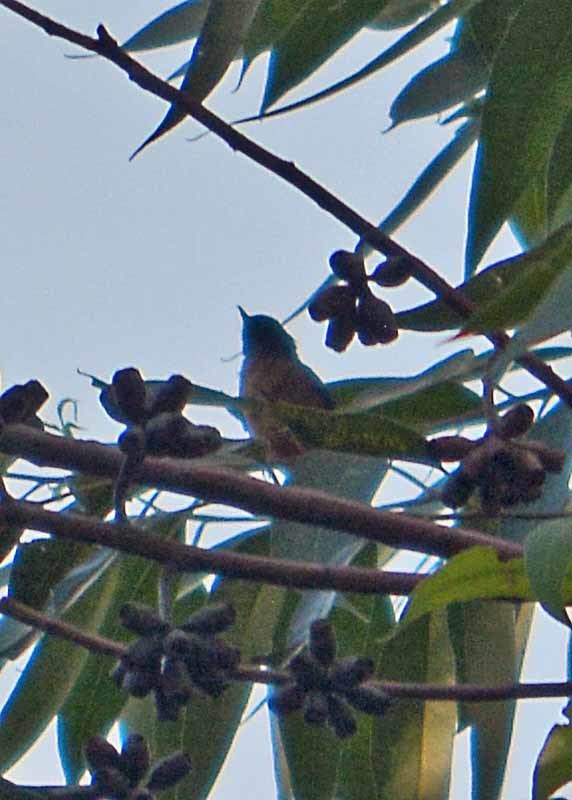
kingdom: Animalia
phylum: Chordata
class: Aves
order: Passeriformes
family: Thraupidae
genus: Diglossa
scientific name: Diglossa baritula
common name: Cinnamon-bellied flowerpiercer
